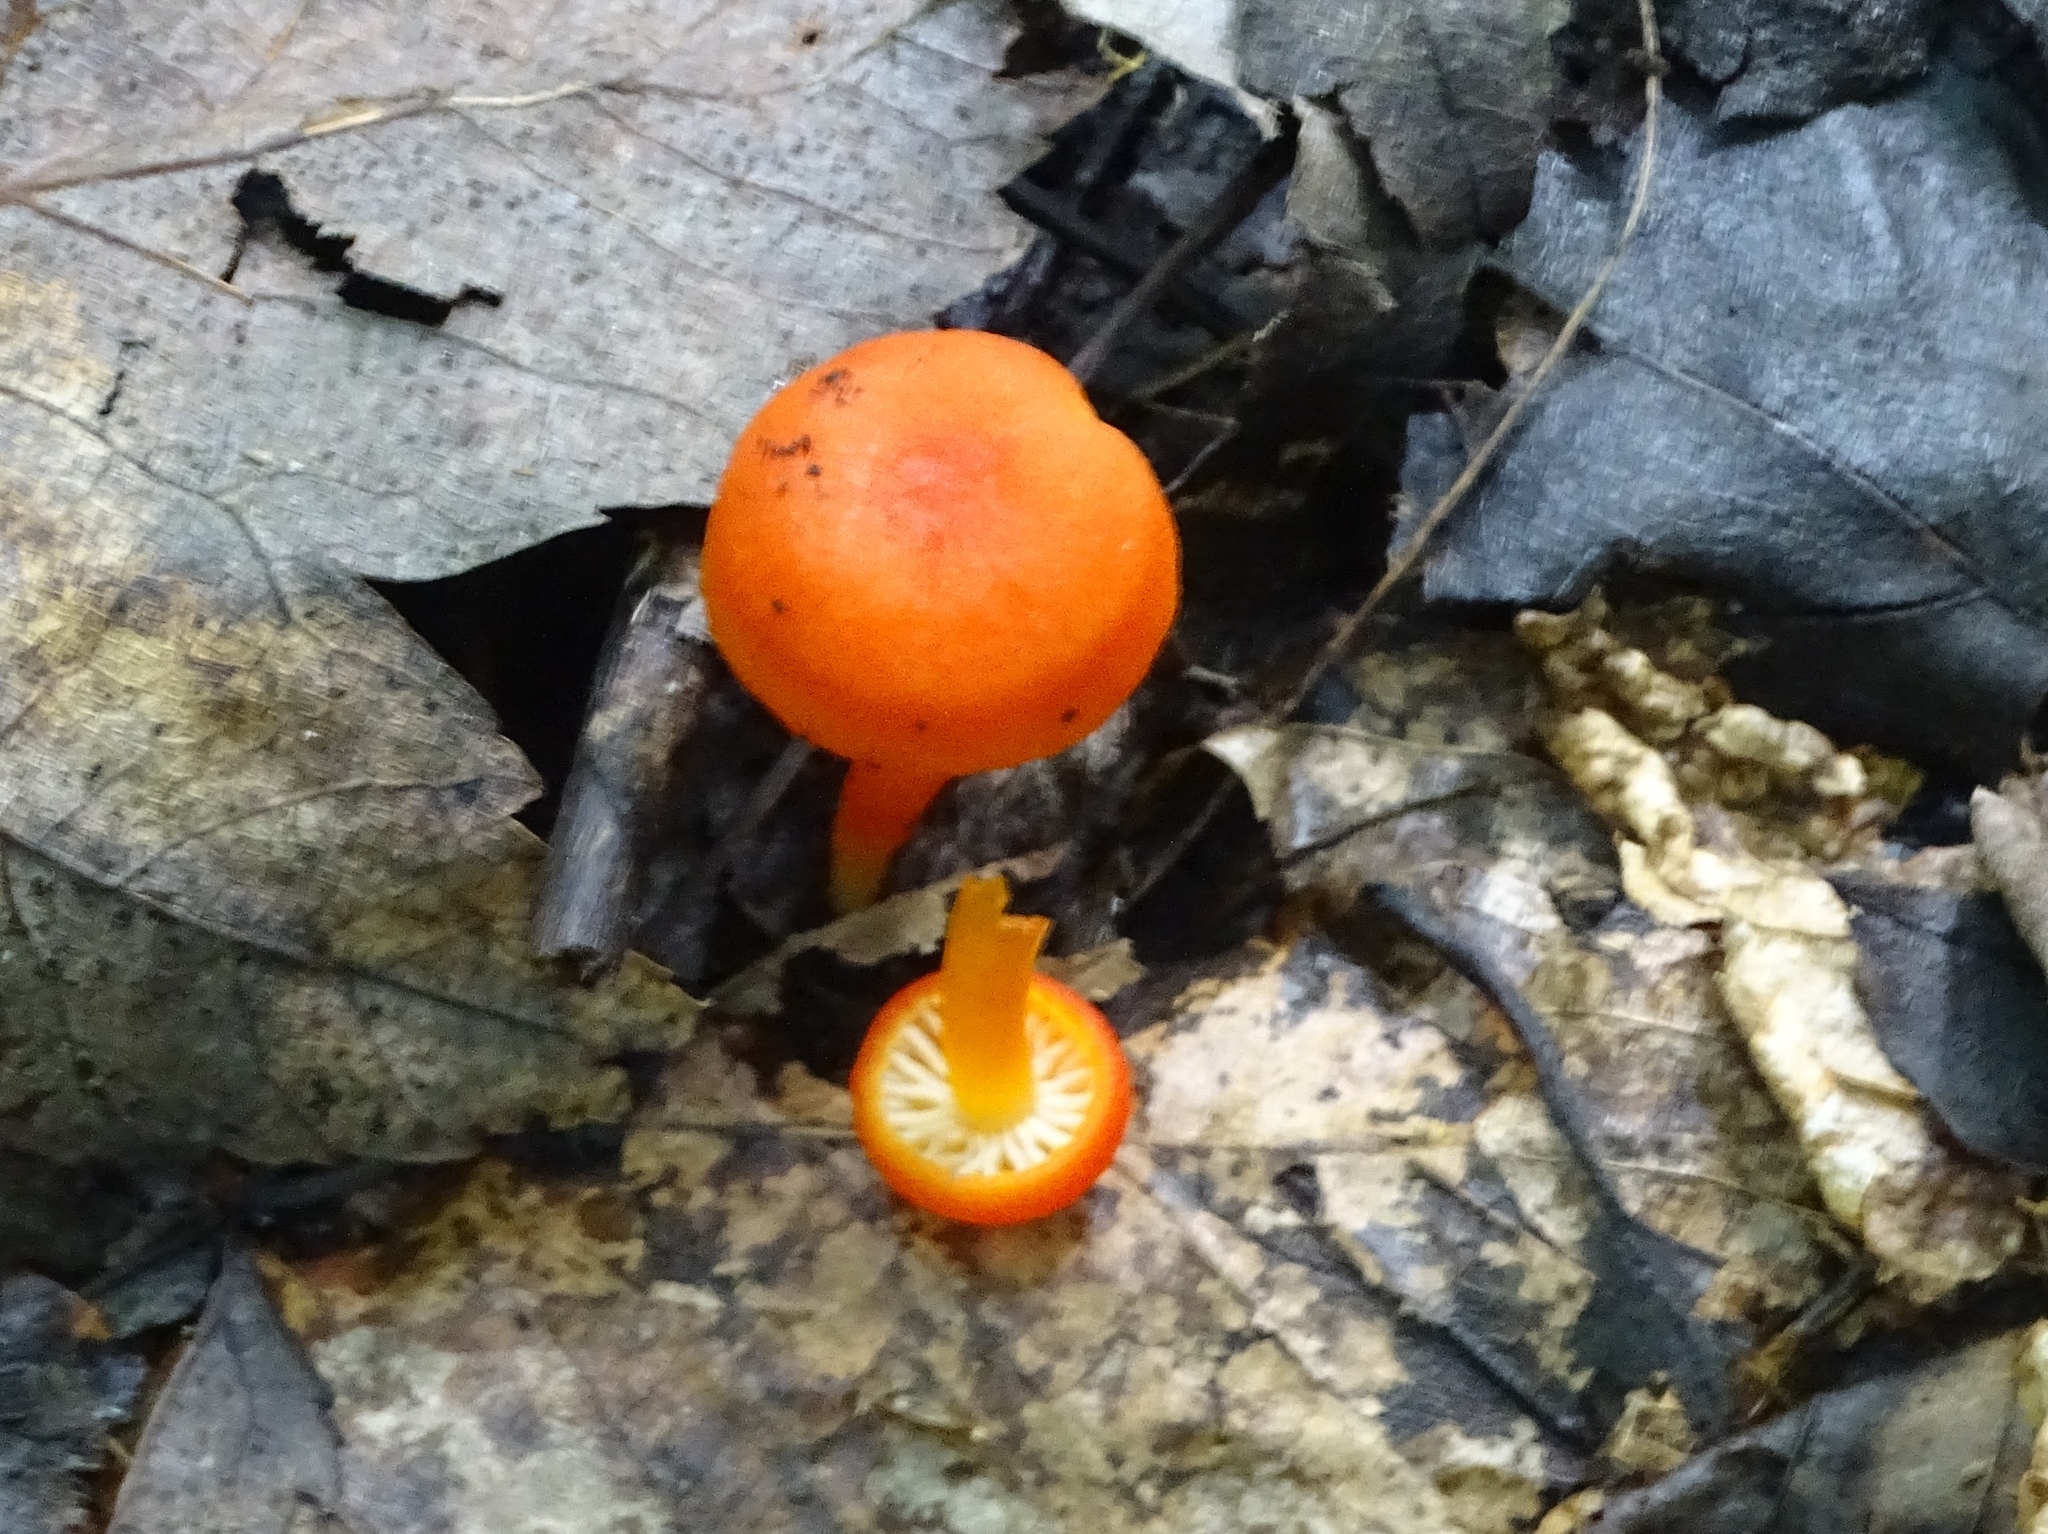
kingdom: Fungi
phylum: Basidiomycota
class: Agaricomycetes
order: Agaricales
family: Hygrophoraceae
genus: Hygrocybe
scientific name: Hygrocybe cantharellus
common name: Goblet waxcap
